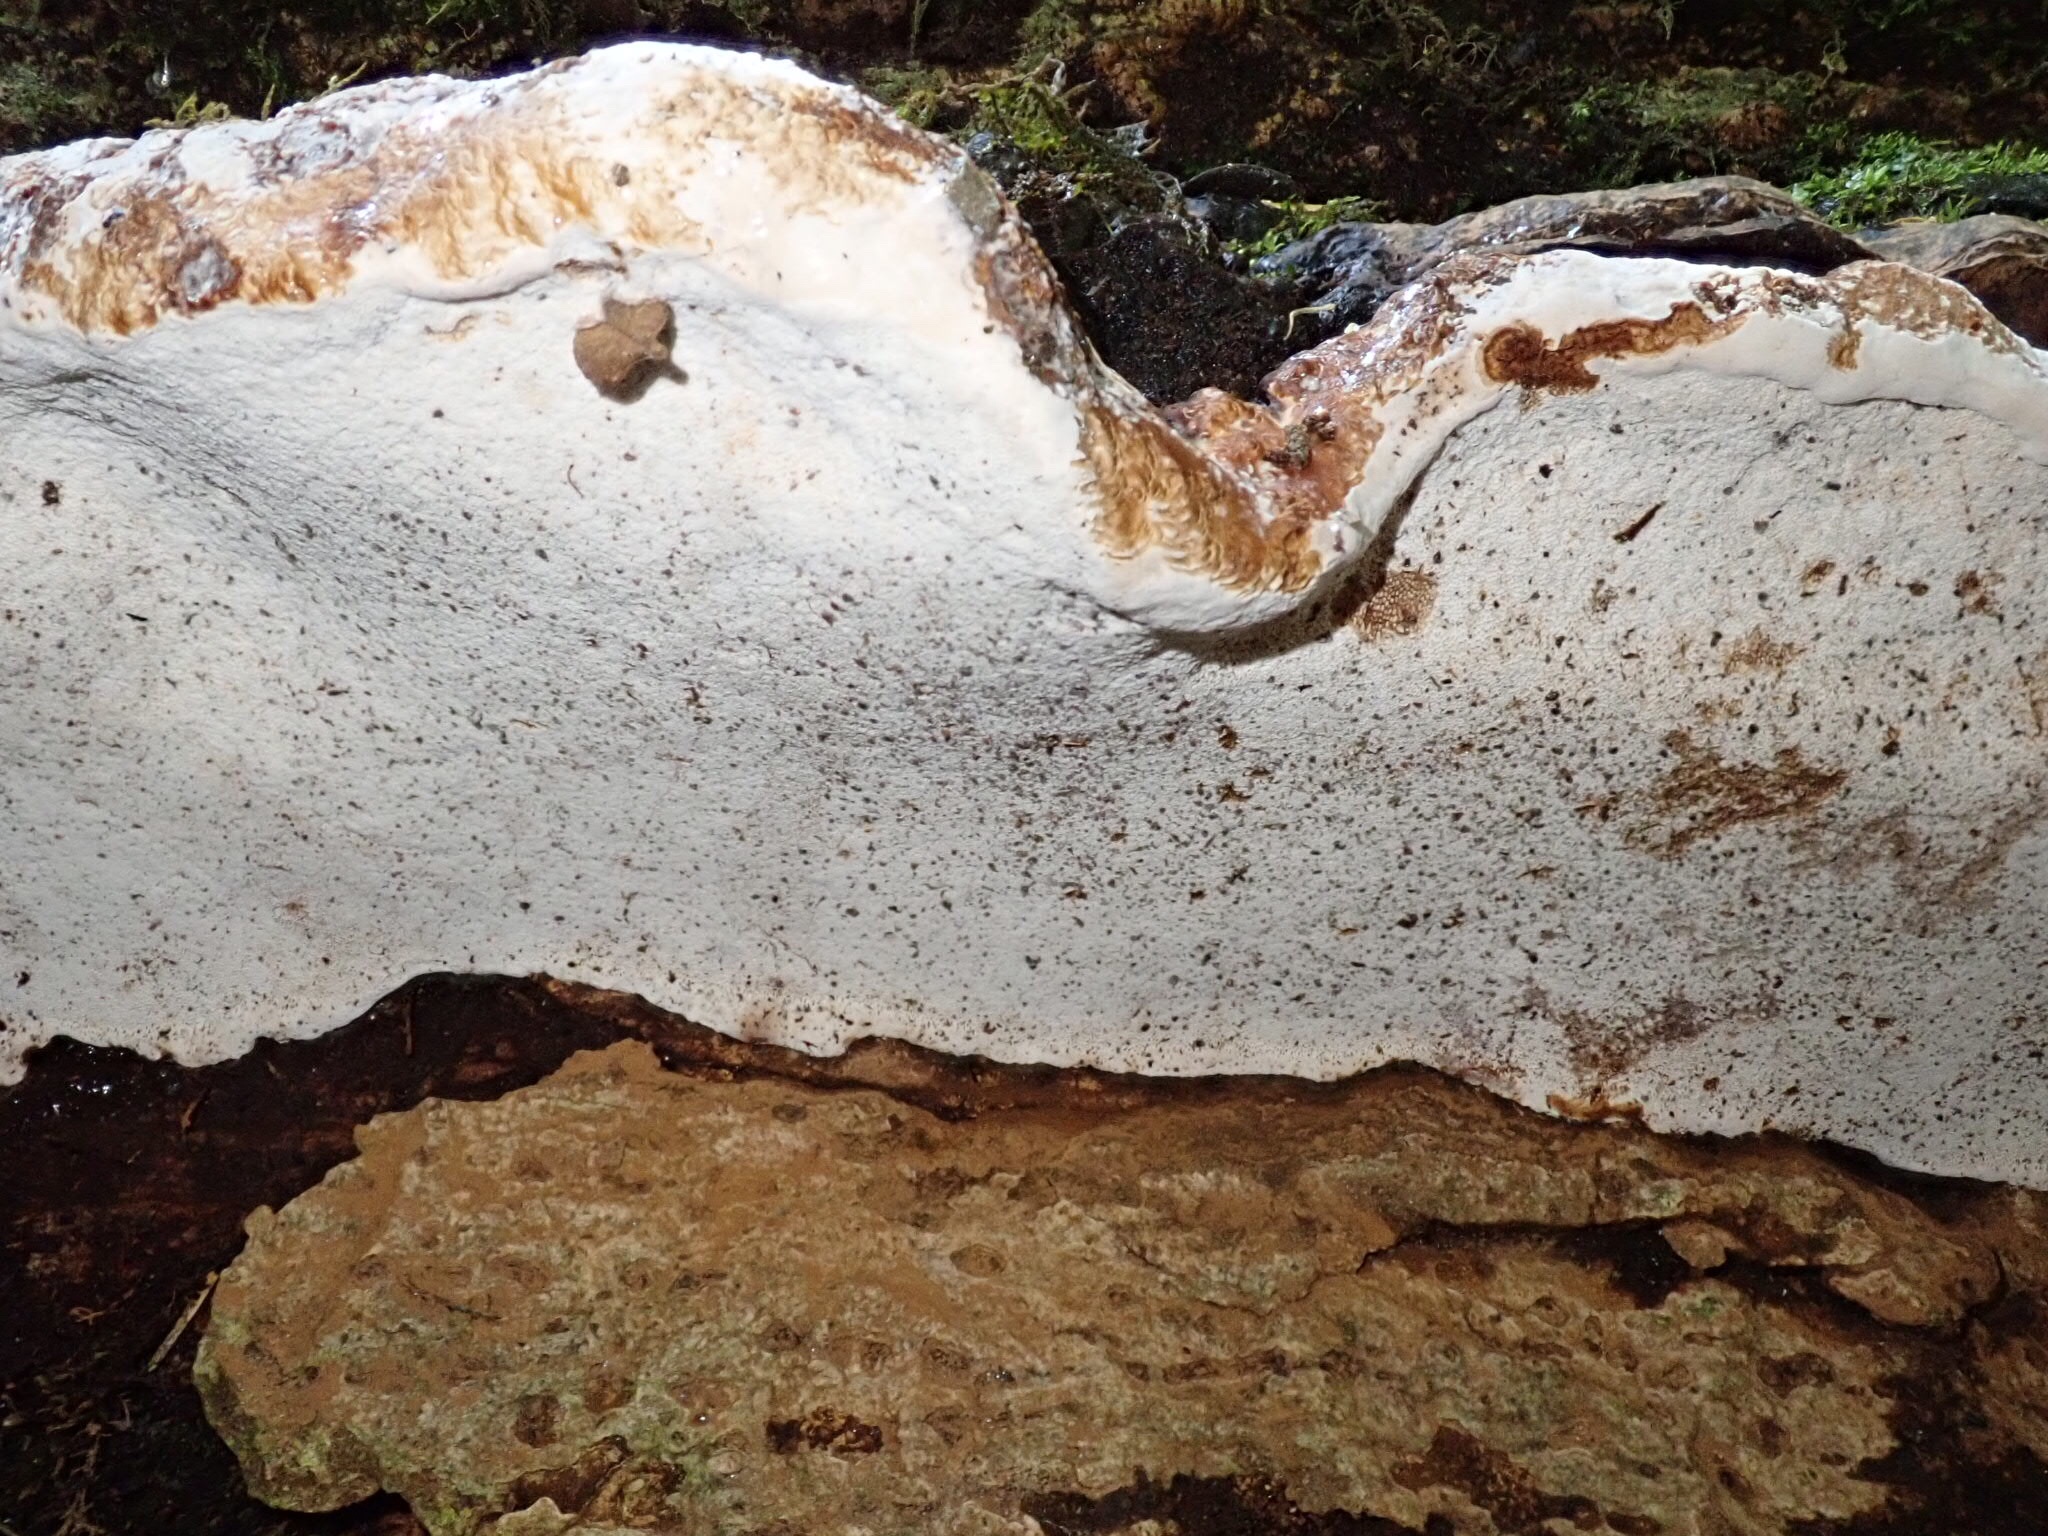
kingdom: Fungi
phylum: Basidiomycota
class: Agaricomycetes
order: Polyporales
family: Polyporaceae
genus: Ganoderma
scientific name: Ganoderma australe
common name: Southern bracket
